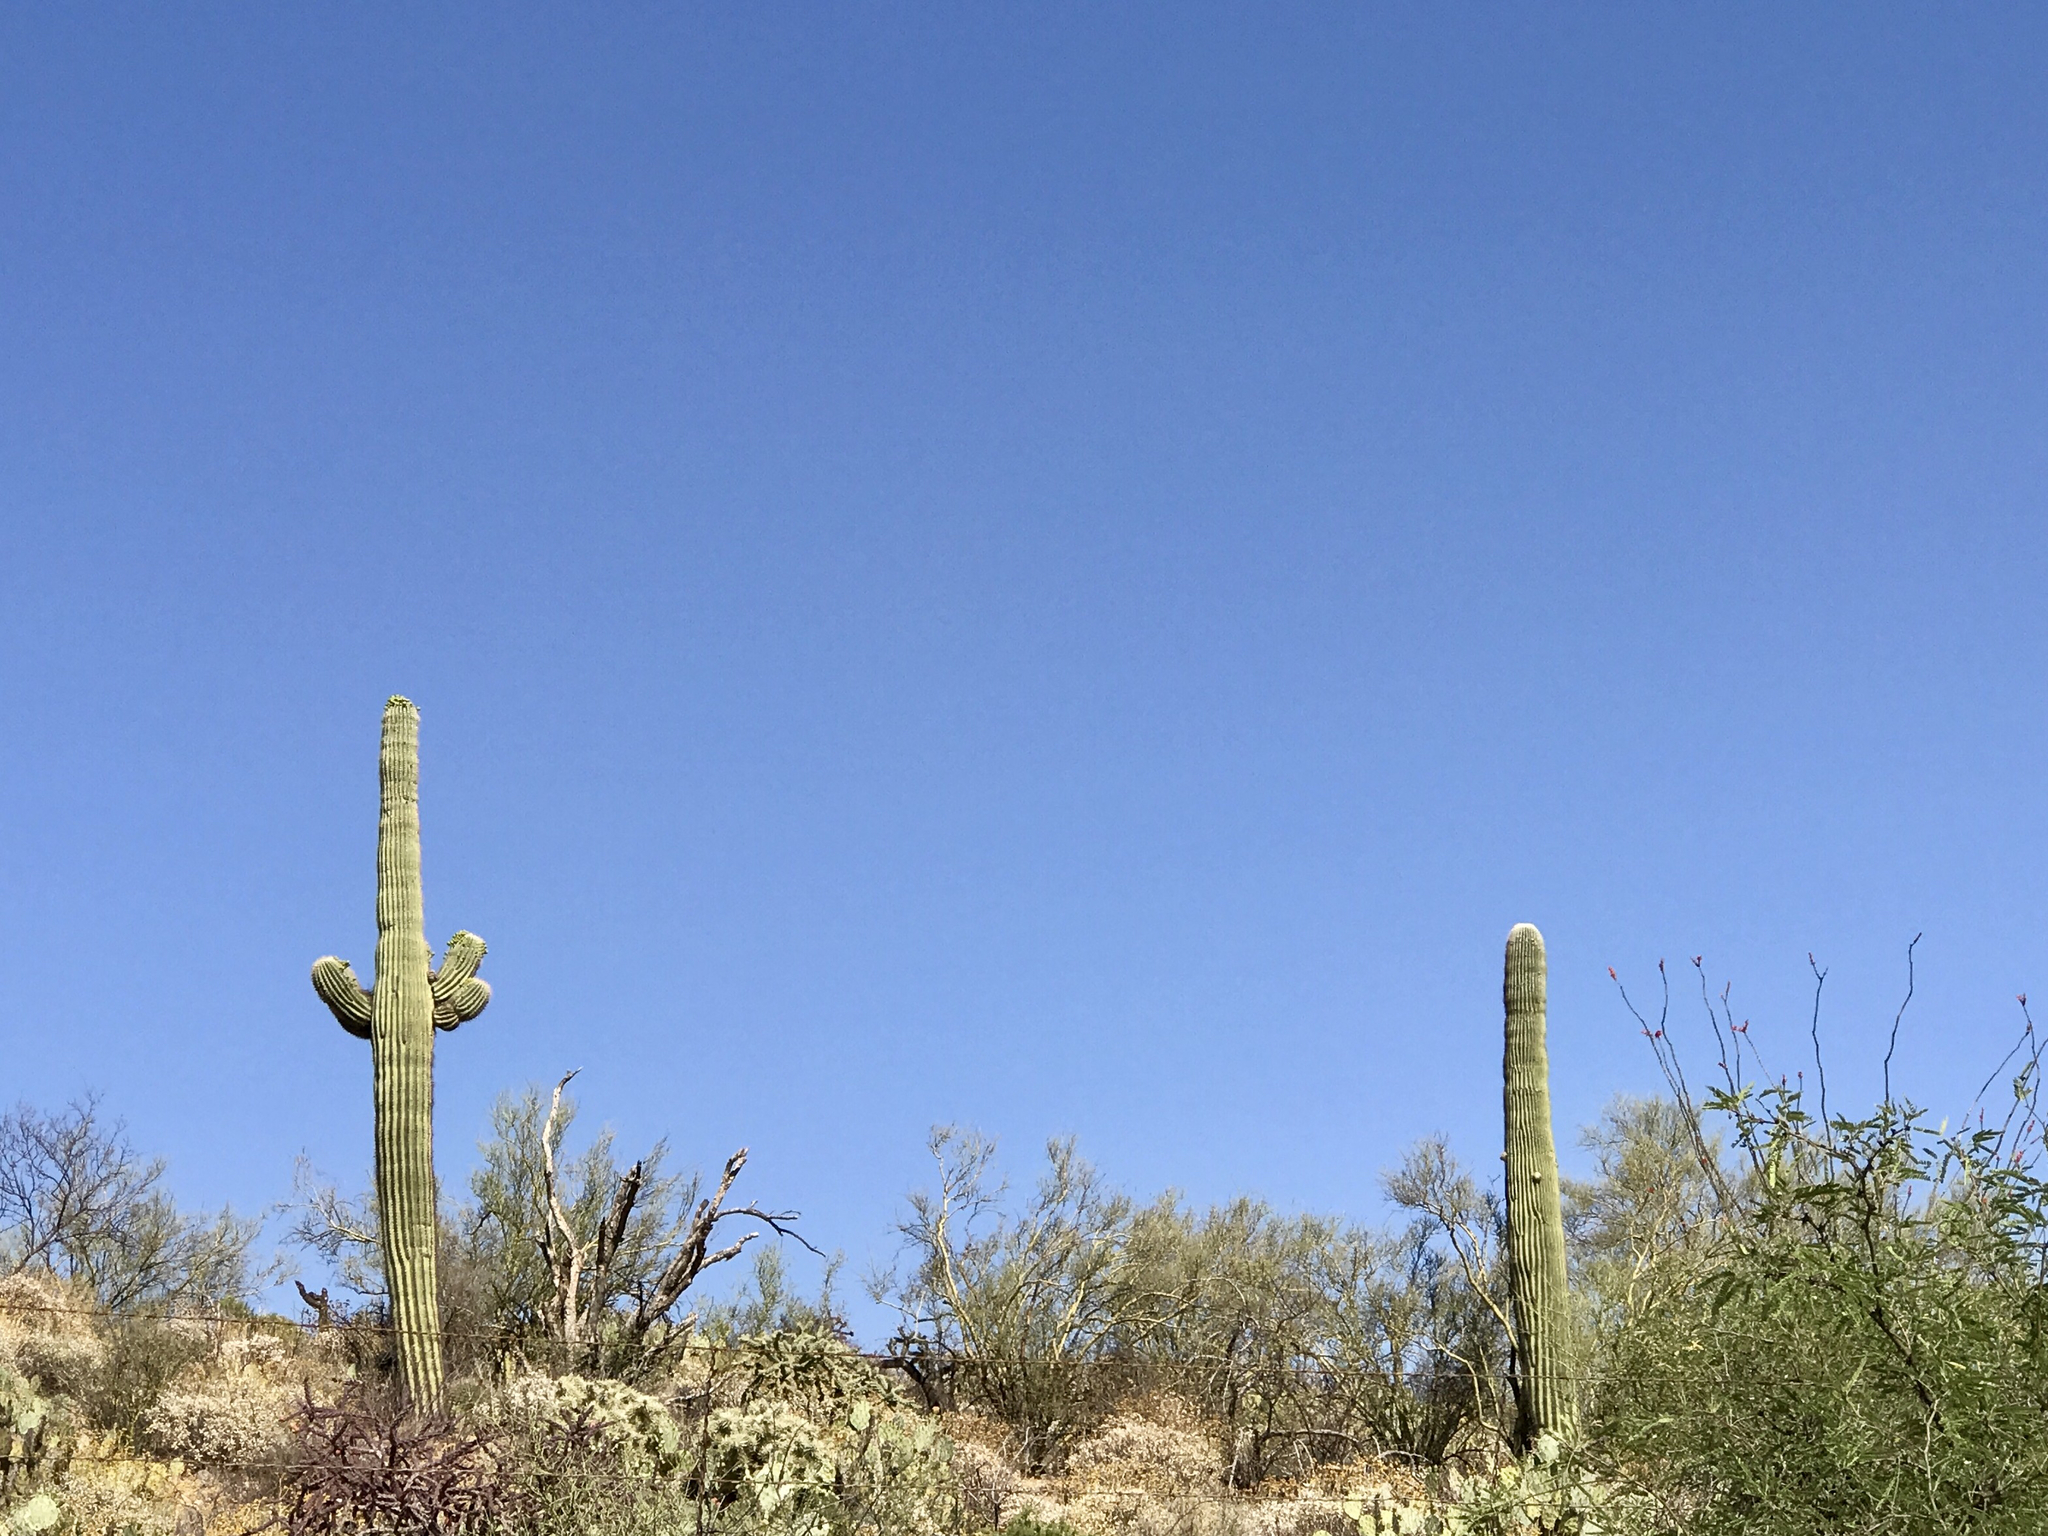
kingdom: Plantae
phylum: Tracheophyta
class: Magnoliopsida
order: Caryophyllales
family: Cactaceae
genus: Carnegiea
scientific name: Carnegiea gigantea
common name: Saguaro
